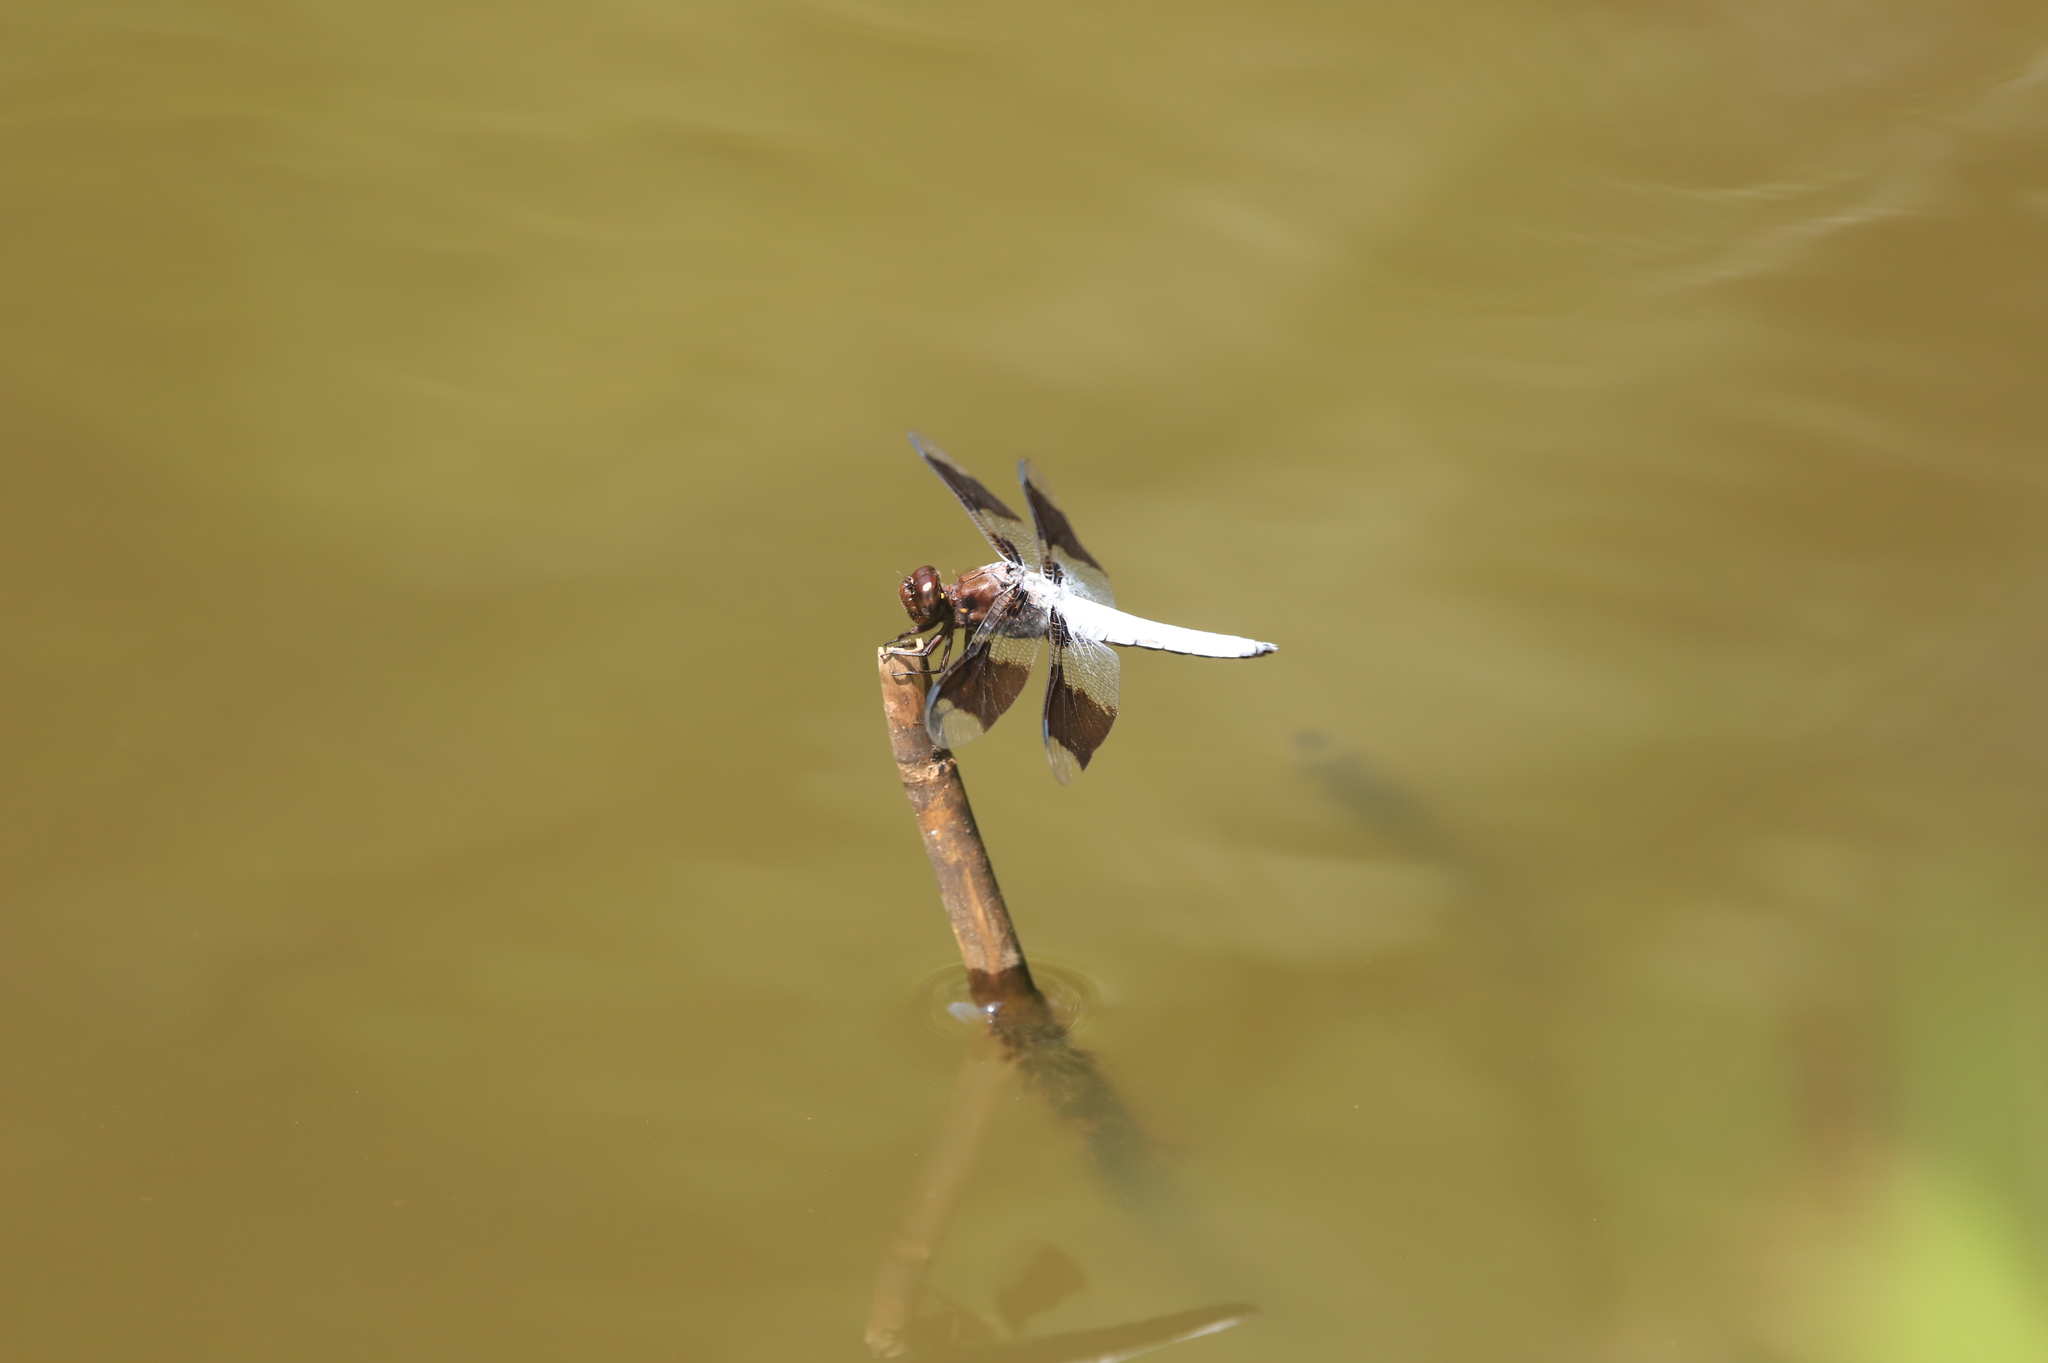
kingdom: Animalia
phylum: Arthropoda
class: Insecta
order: Odonata
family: Libellulidae
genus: Plathemis
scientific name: Plathemis lydia
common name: Common whitetail
